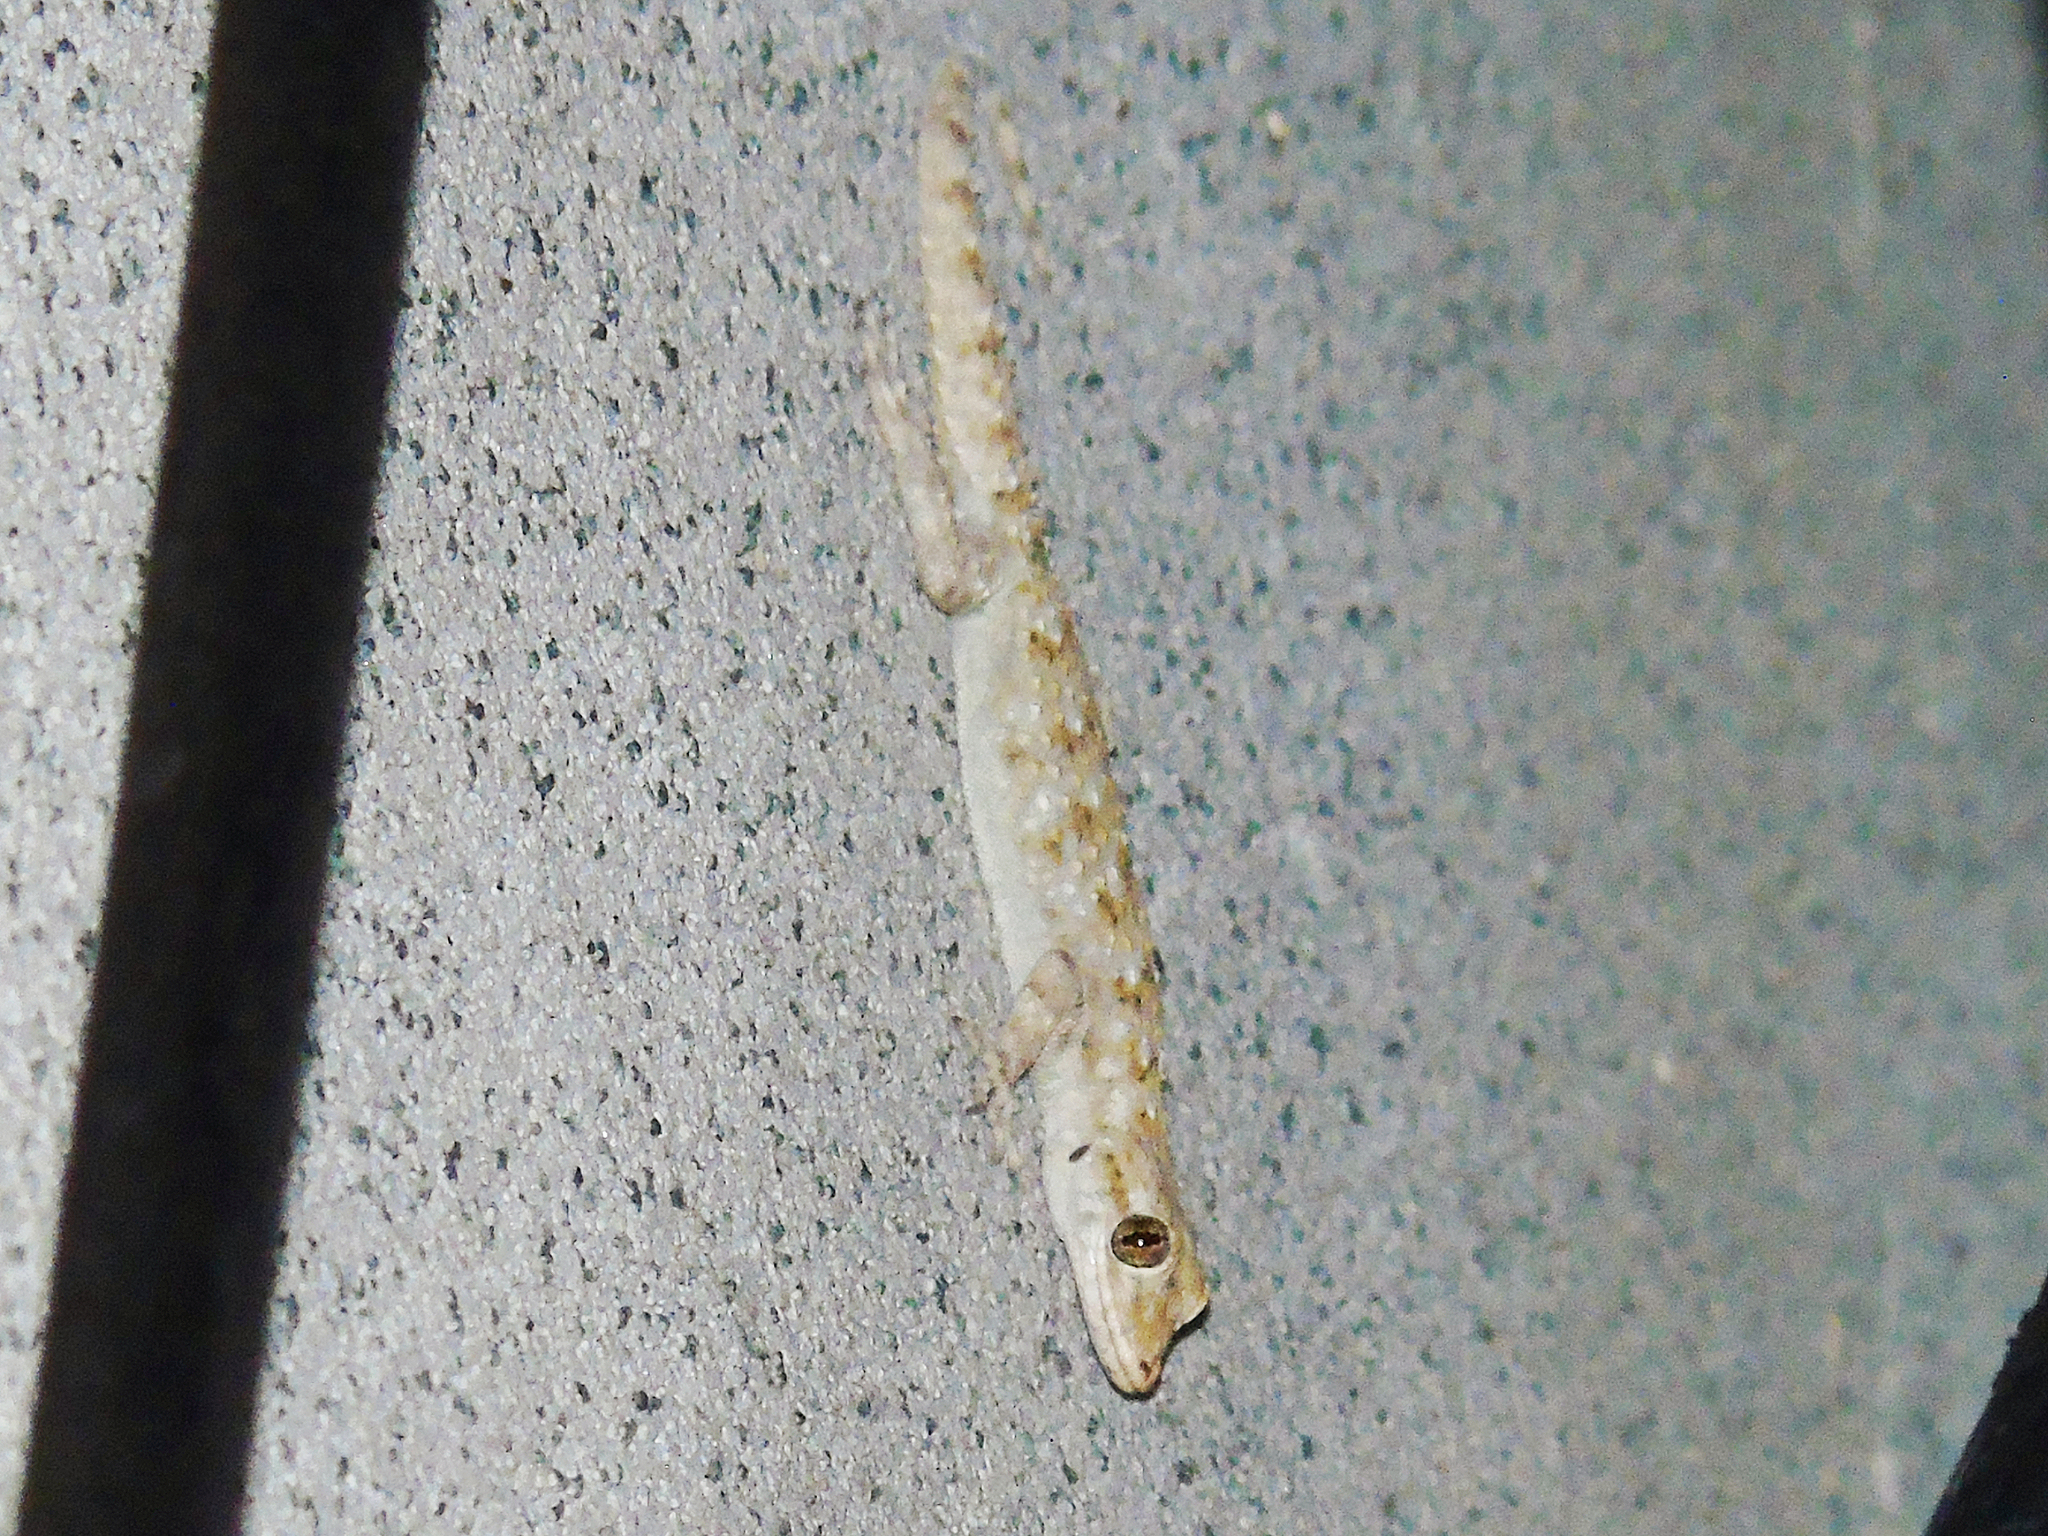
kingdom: Animalia
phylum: Chordata
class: Squamata
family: Gekkonidae
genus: Mediodactylus
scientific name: Mediodactylus kotschyi
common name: Kotschy's gecko
